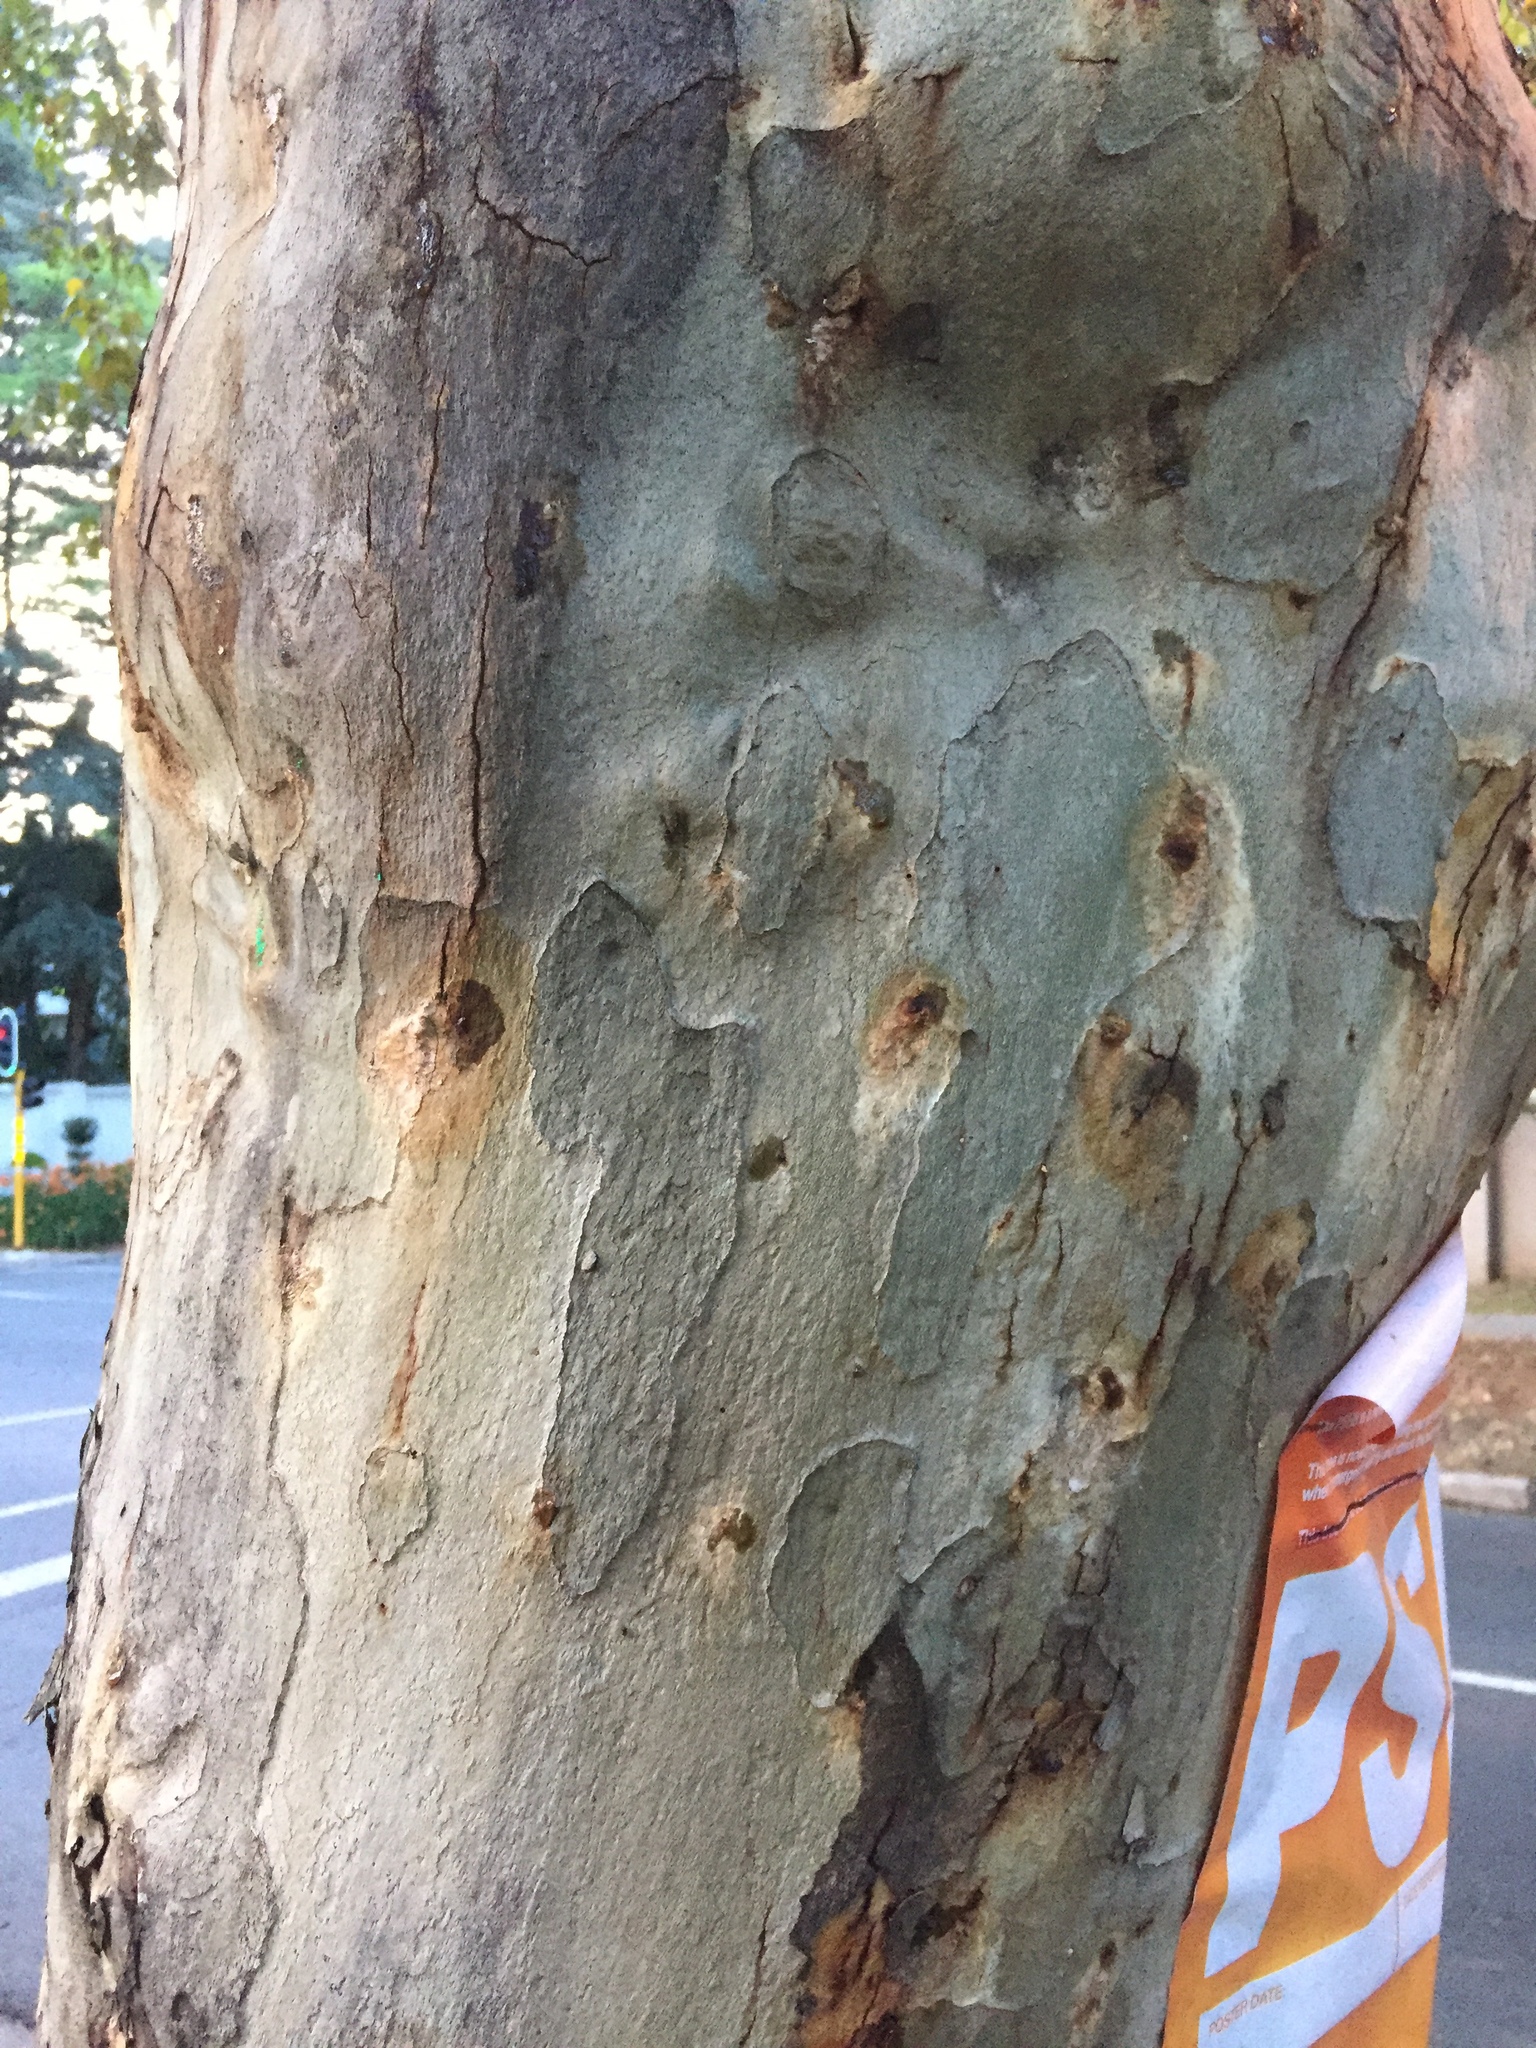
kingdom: Animalia
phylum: Arthropoda
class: Insecta
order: Coleoptera
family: Curculionidae
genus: Euwallacea
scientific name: Euwallacea fornicatus
